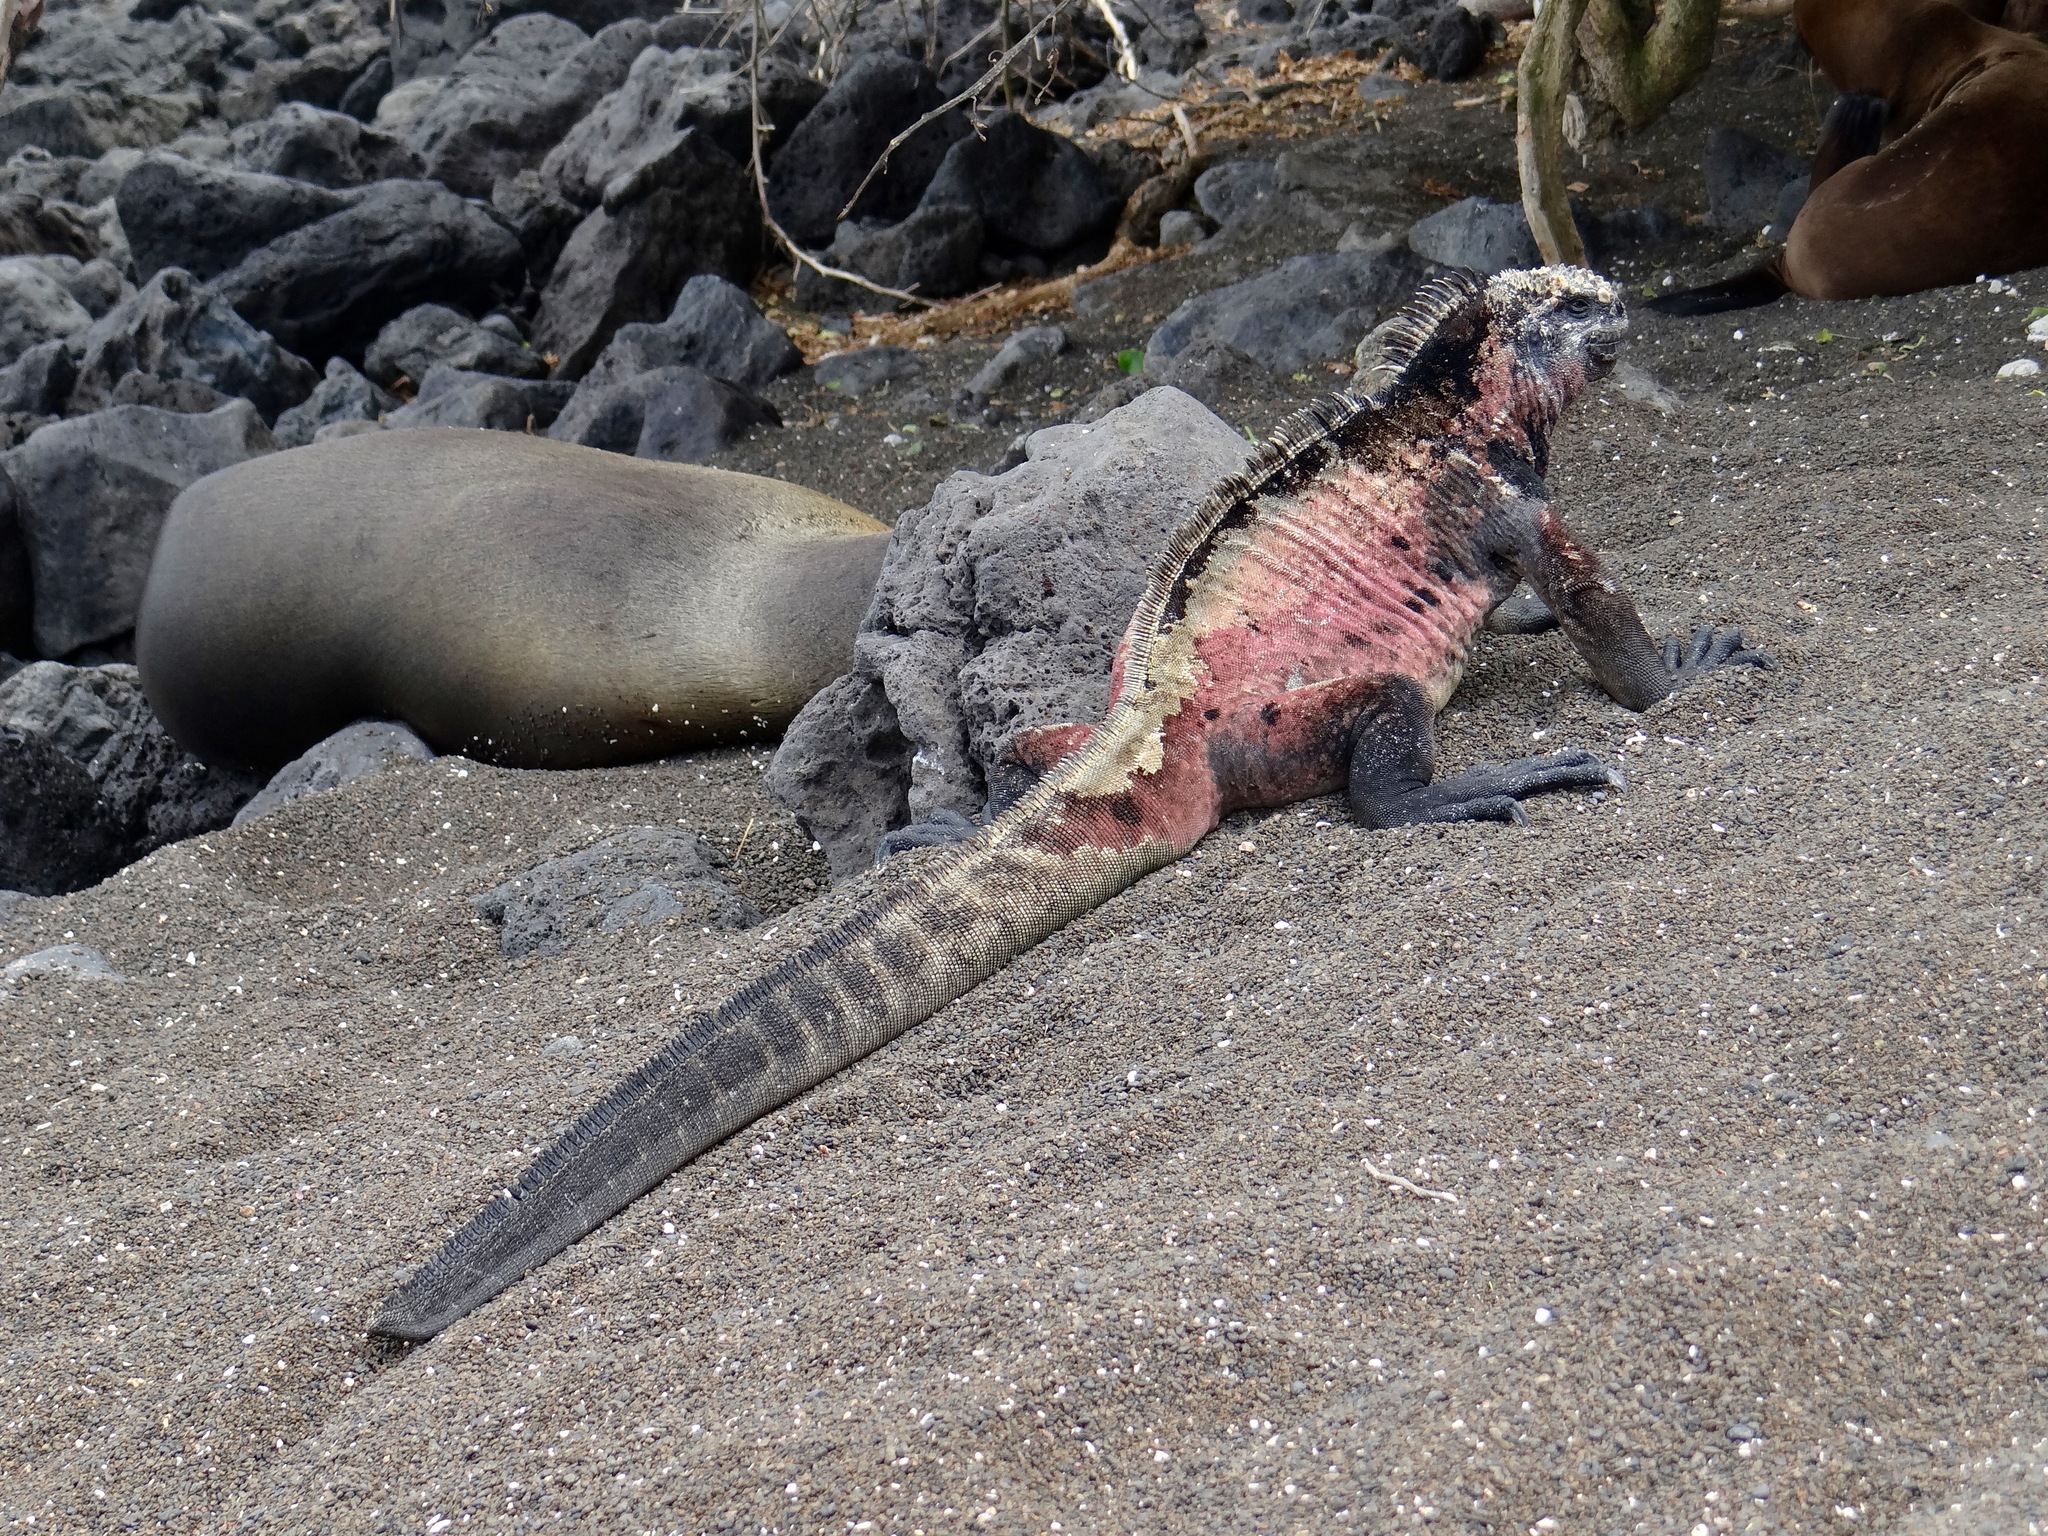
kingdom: Animalia
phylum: Chordata
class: Squamata
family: Iguanidae
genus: Amblyrhynchus
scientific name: Amblyrhynchus cristatus
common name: Marine iguana
